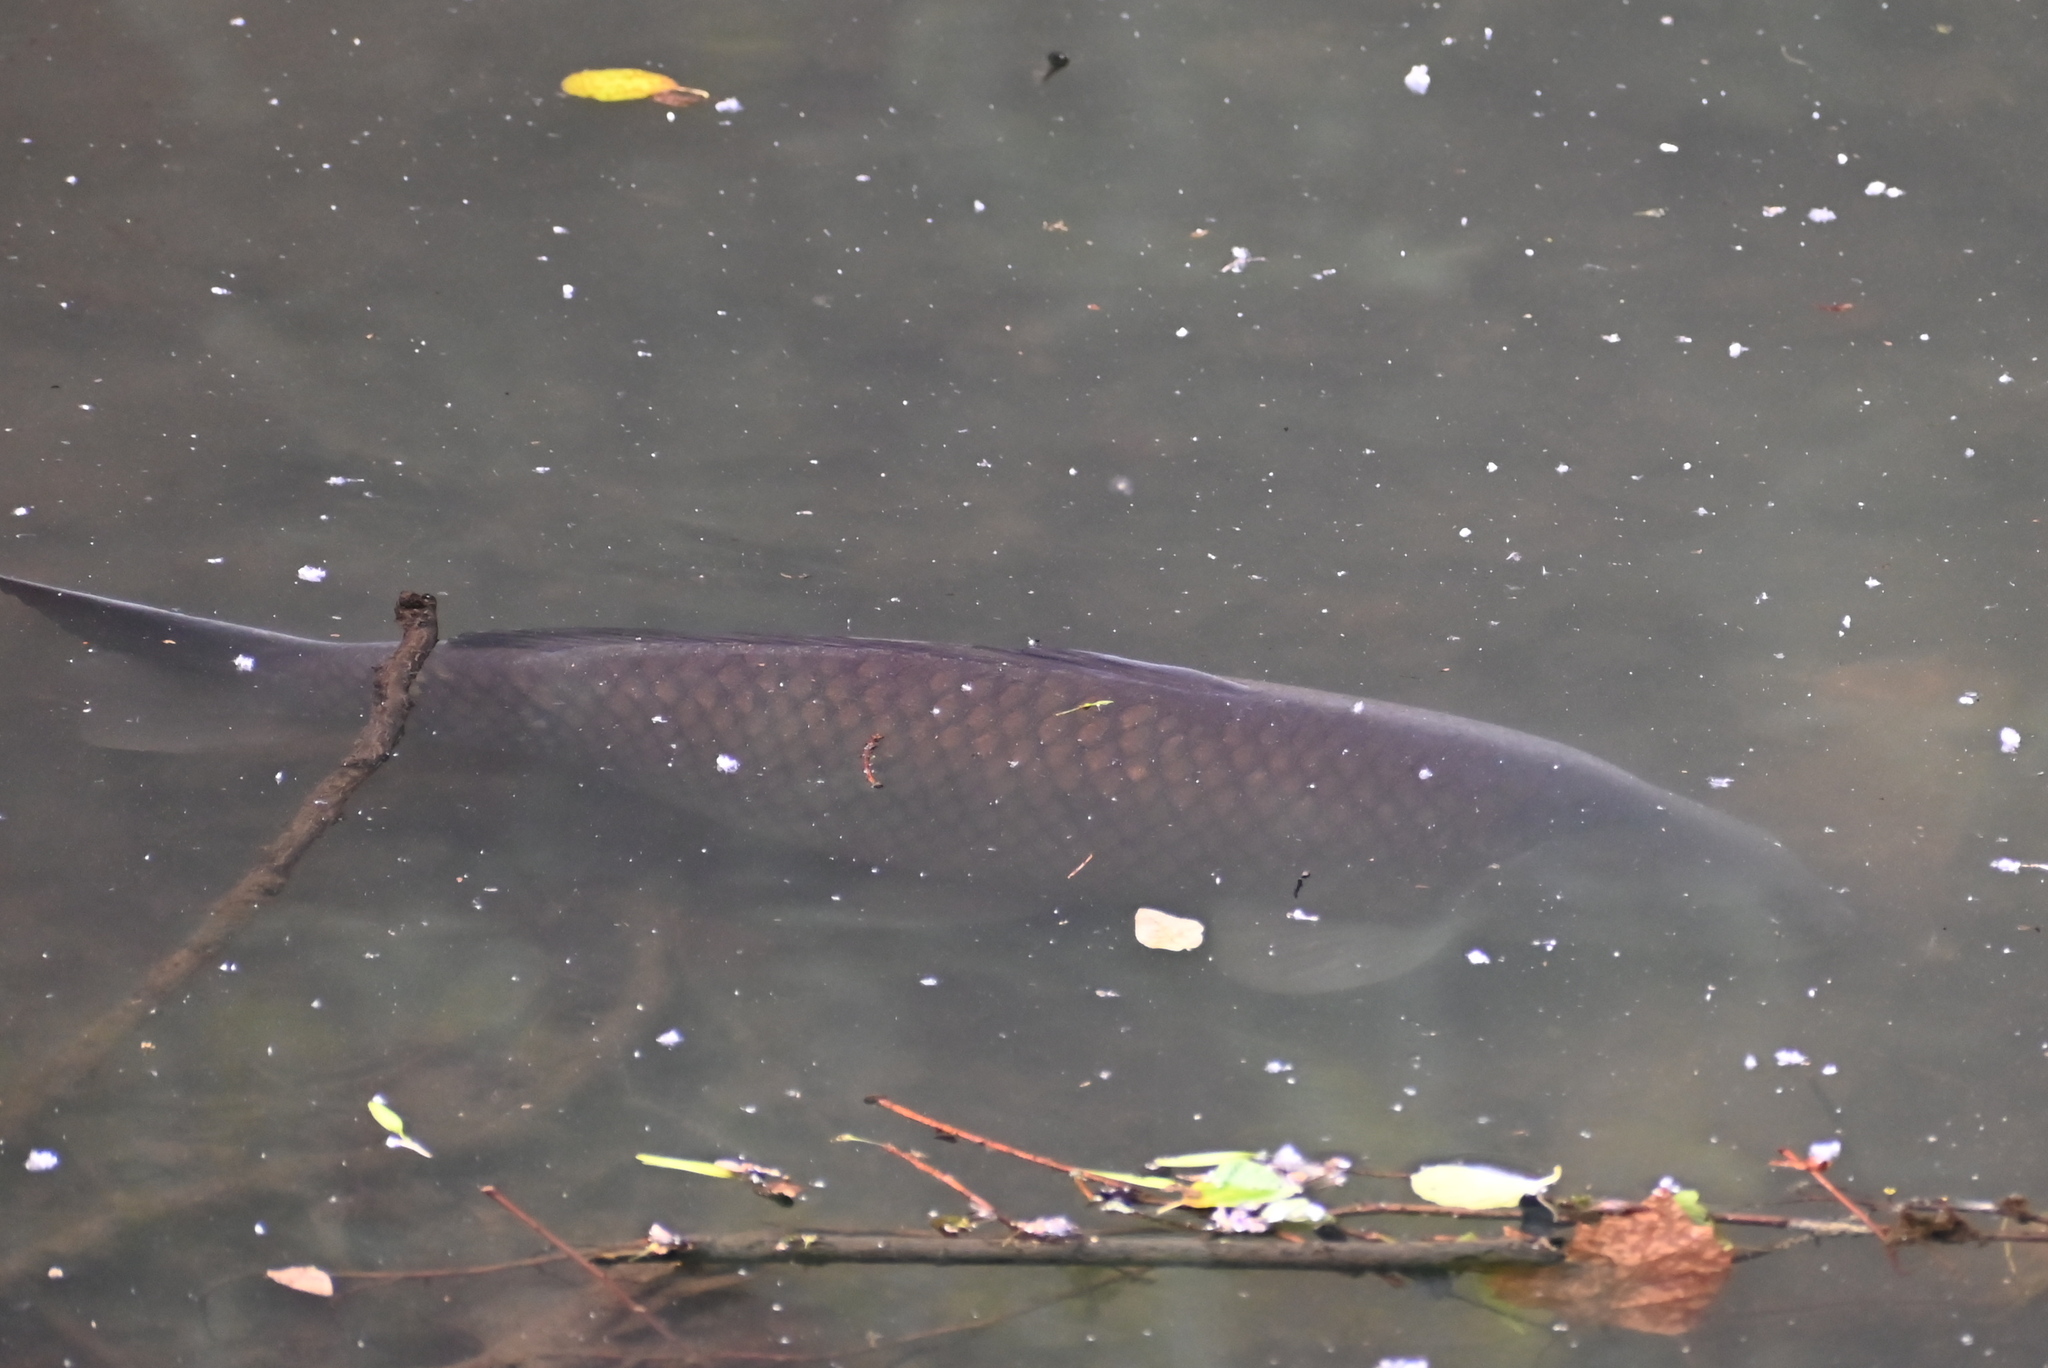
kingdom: Animalia
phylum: Chordata
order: Cypriniformes
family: Cyprinidae
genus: Cyprinus
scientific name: Cyprinus carpio
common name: Common carp
